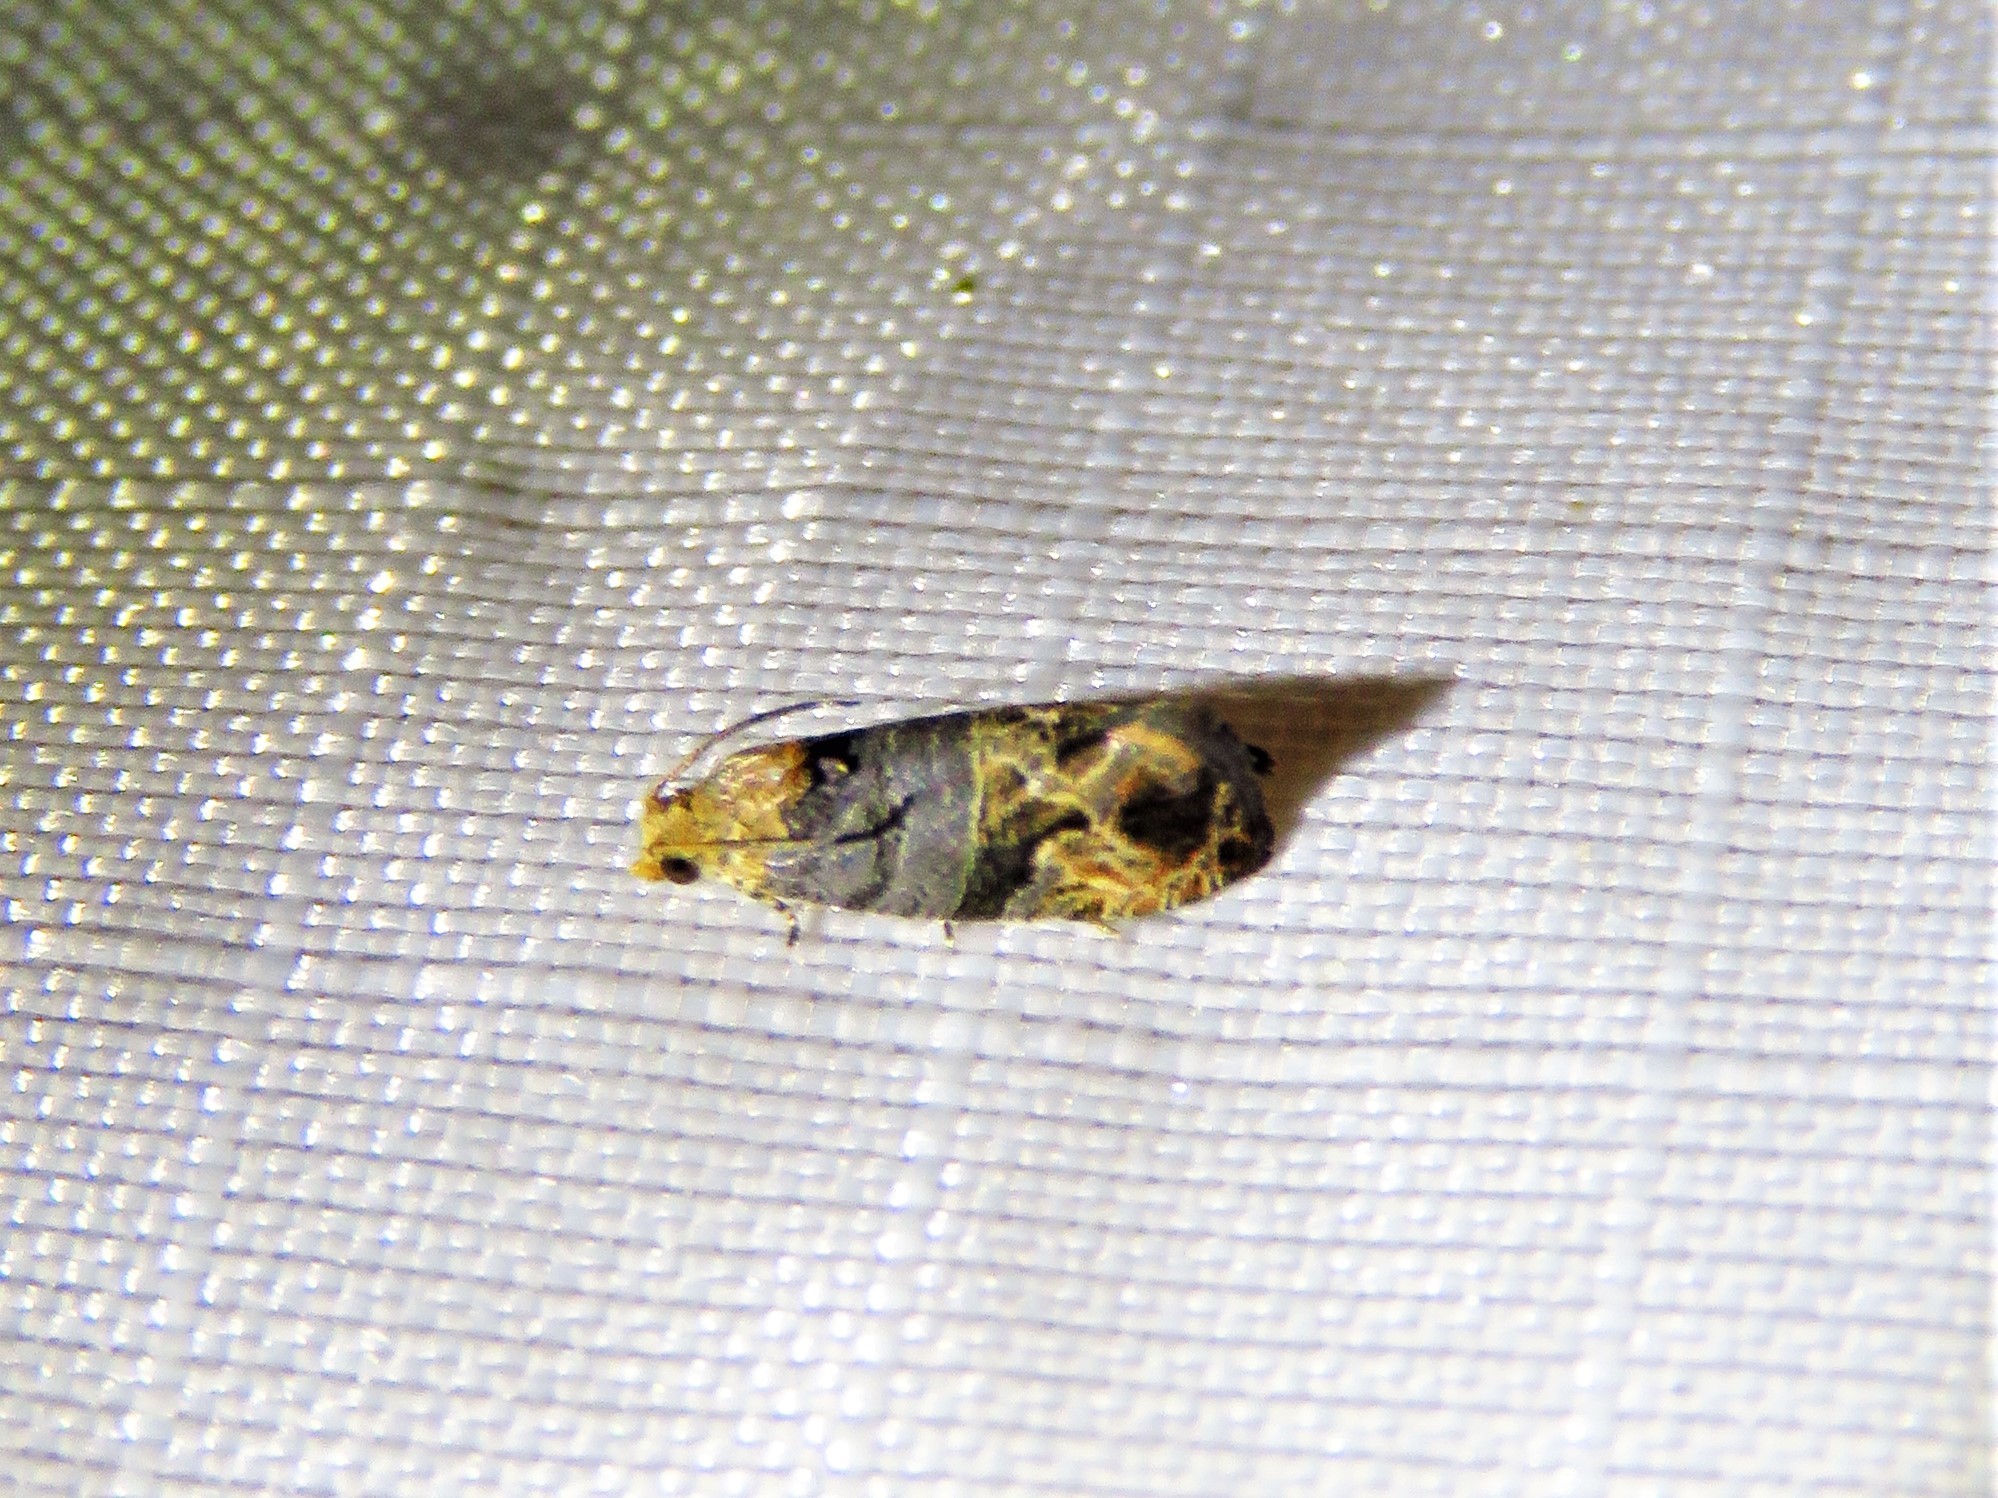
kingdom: Animalia
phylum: Arthropoda
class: Insecta
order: Lepidoptera
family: Tortricidae
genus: Paralobesia
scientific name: Paralobesia viteana
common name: Grape berry moth
